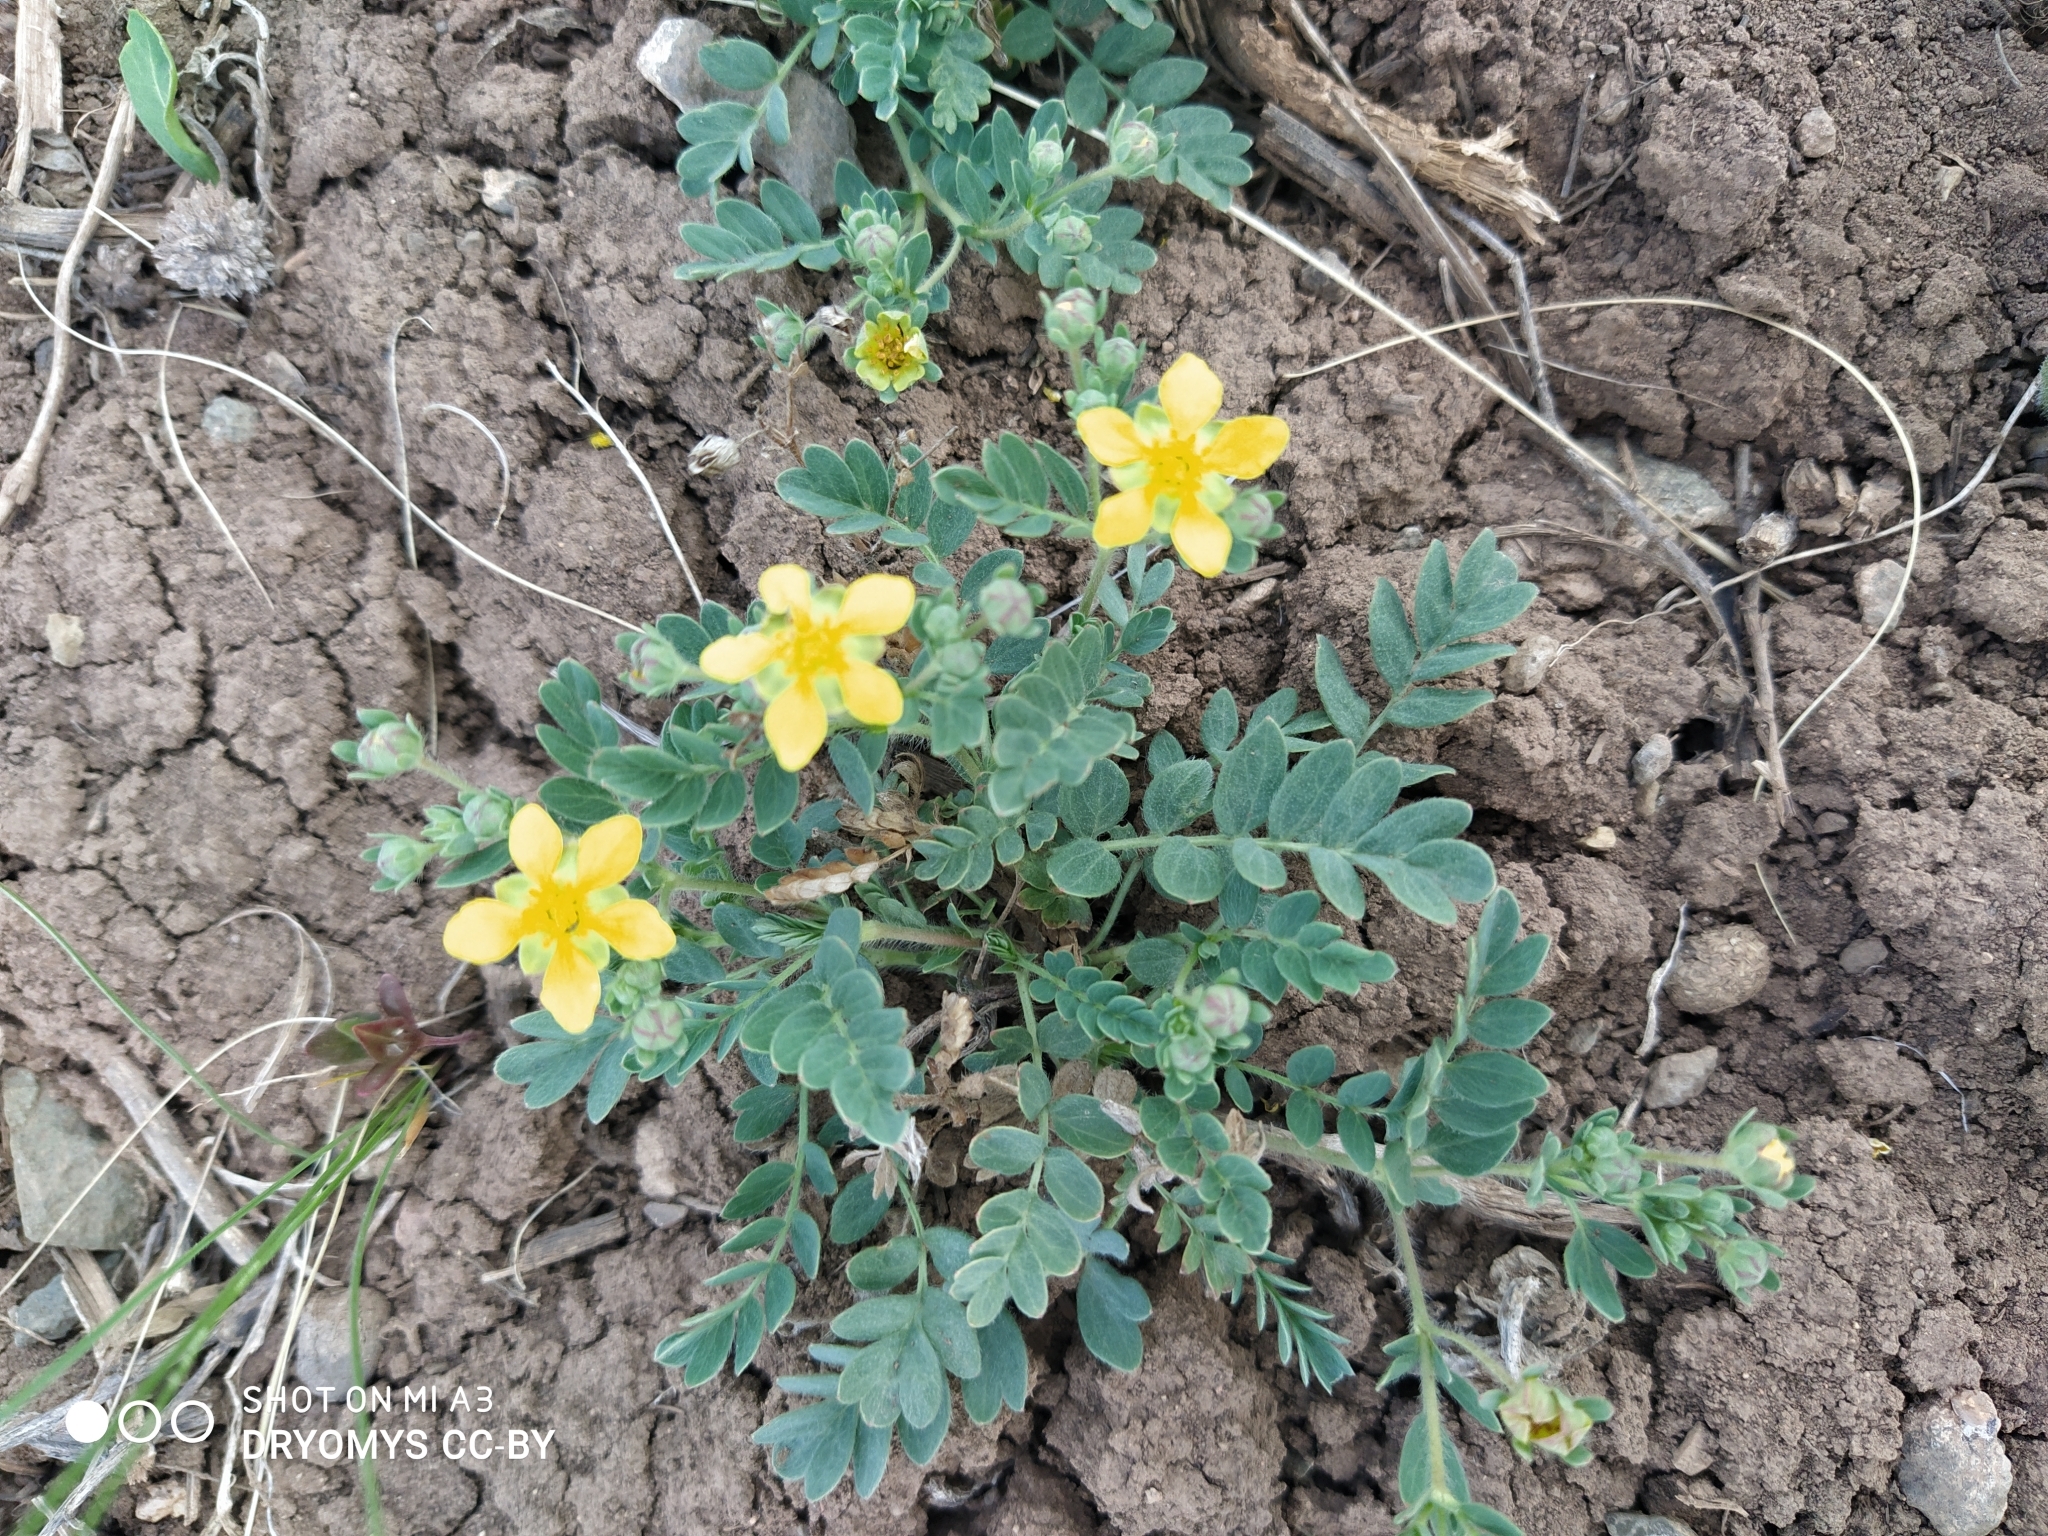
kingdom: Plantae
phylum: Tracheophyta
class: Magnoliopsida
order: Rosales
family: Rosaceae
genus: Sibbaldianthe
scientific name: Sibbaldianthe bifurca
